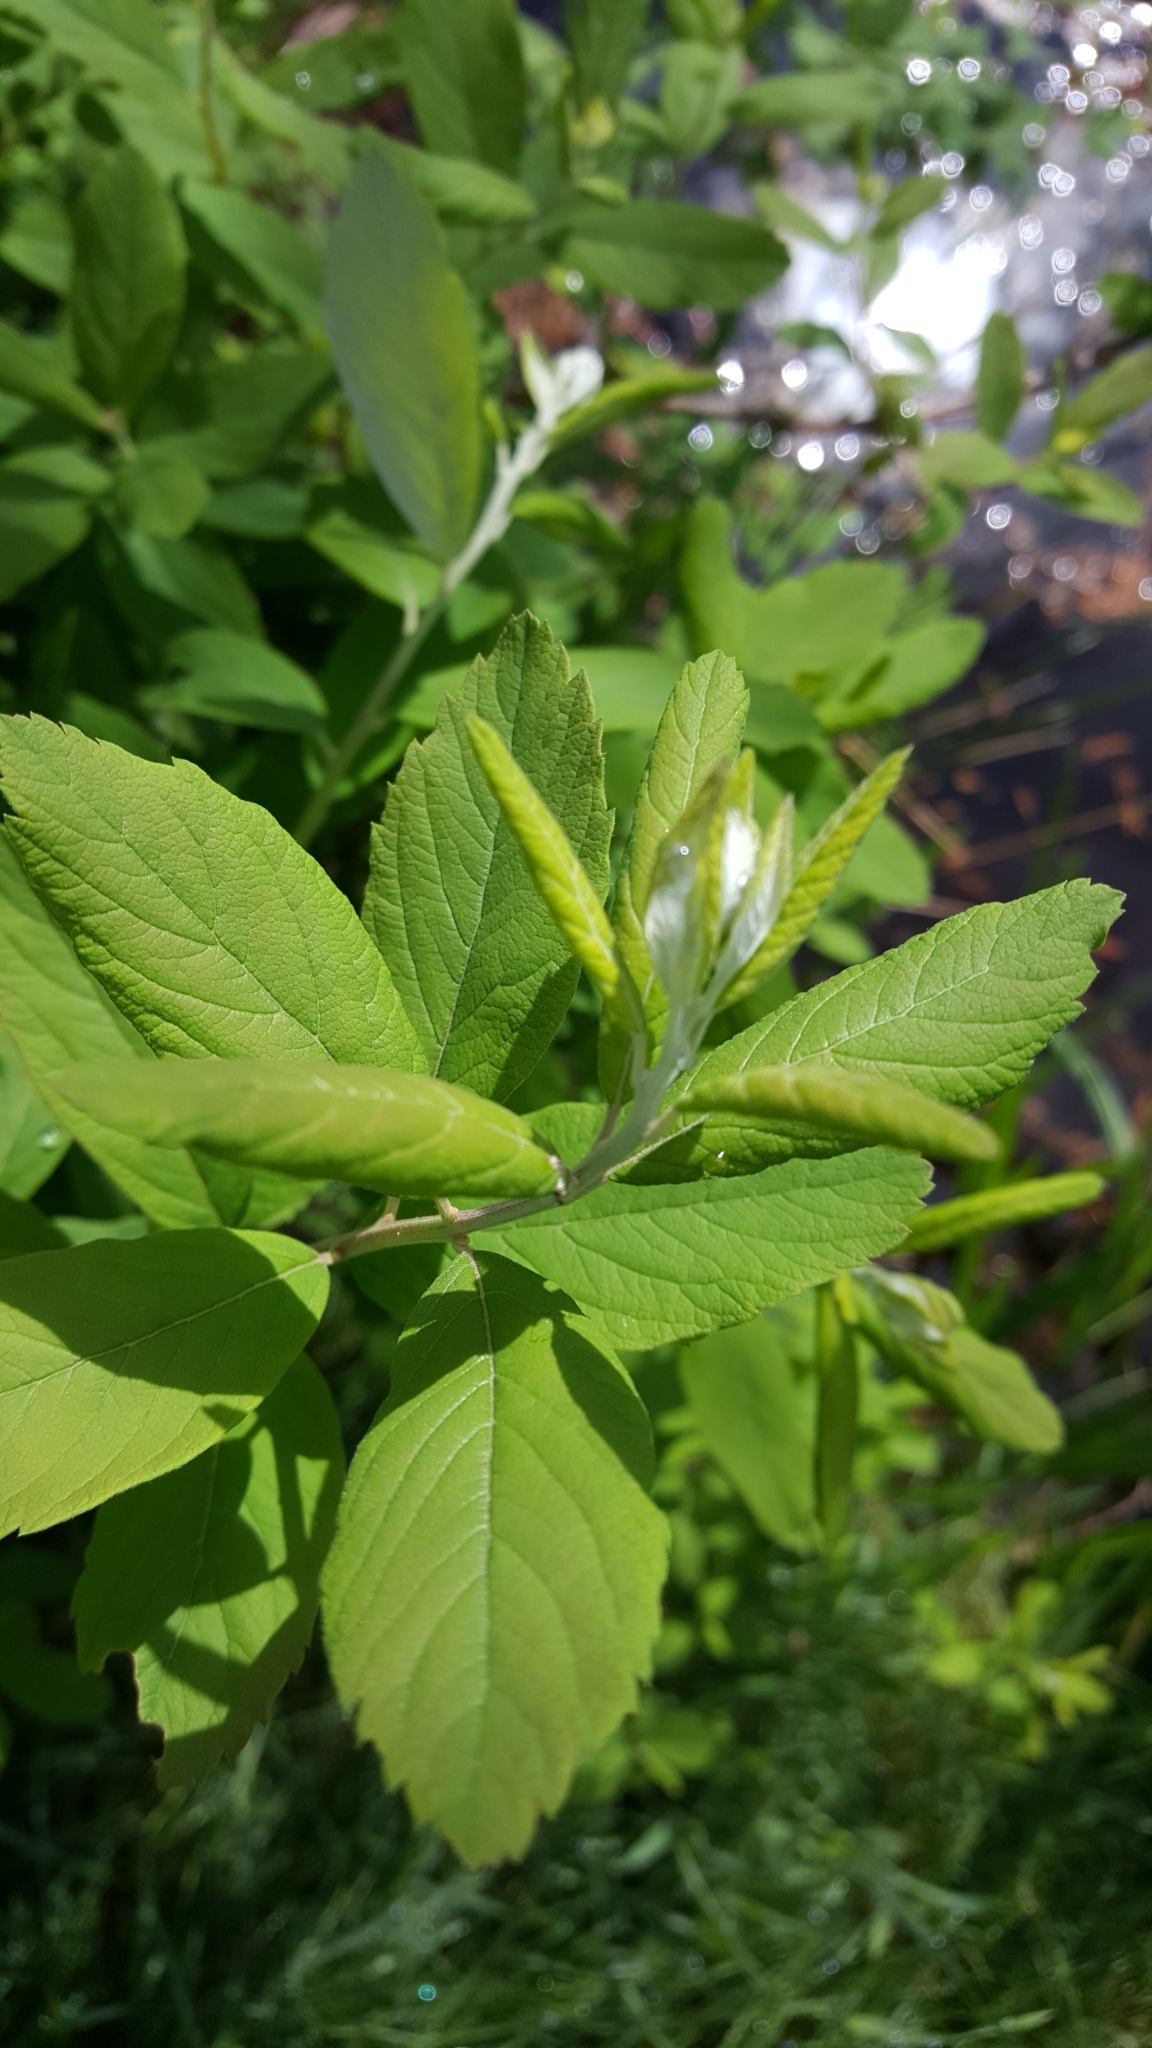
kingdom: Plantae
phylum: Tracheophyta
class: Magnoliopsida
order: Rosales
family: Rosaceae
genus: Spiraea
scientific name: Spiraea douglasii
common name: Steeplebush
